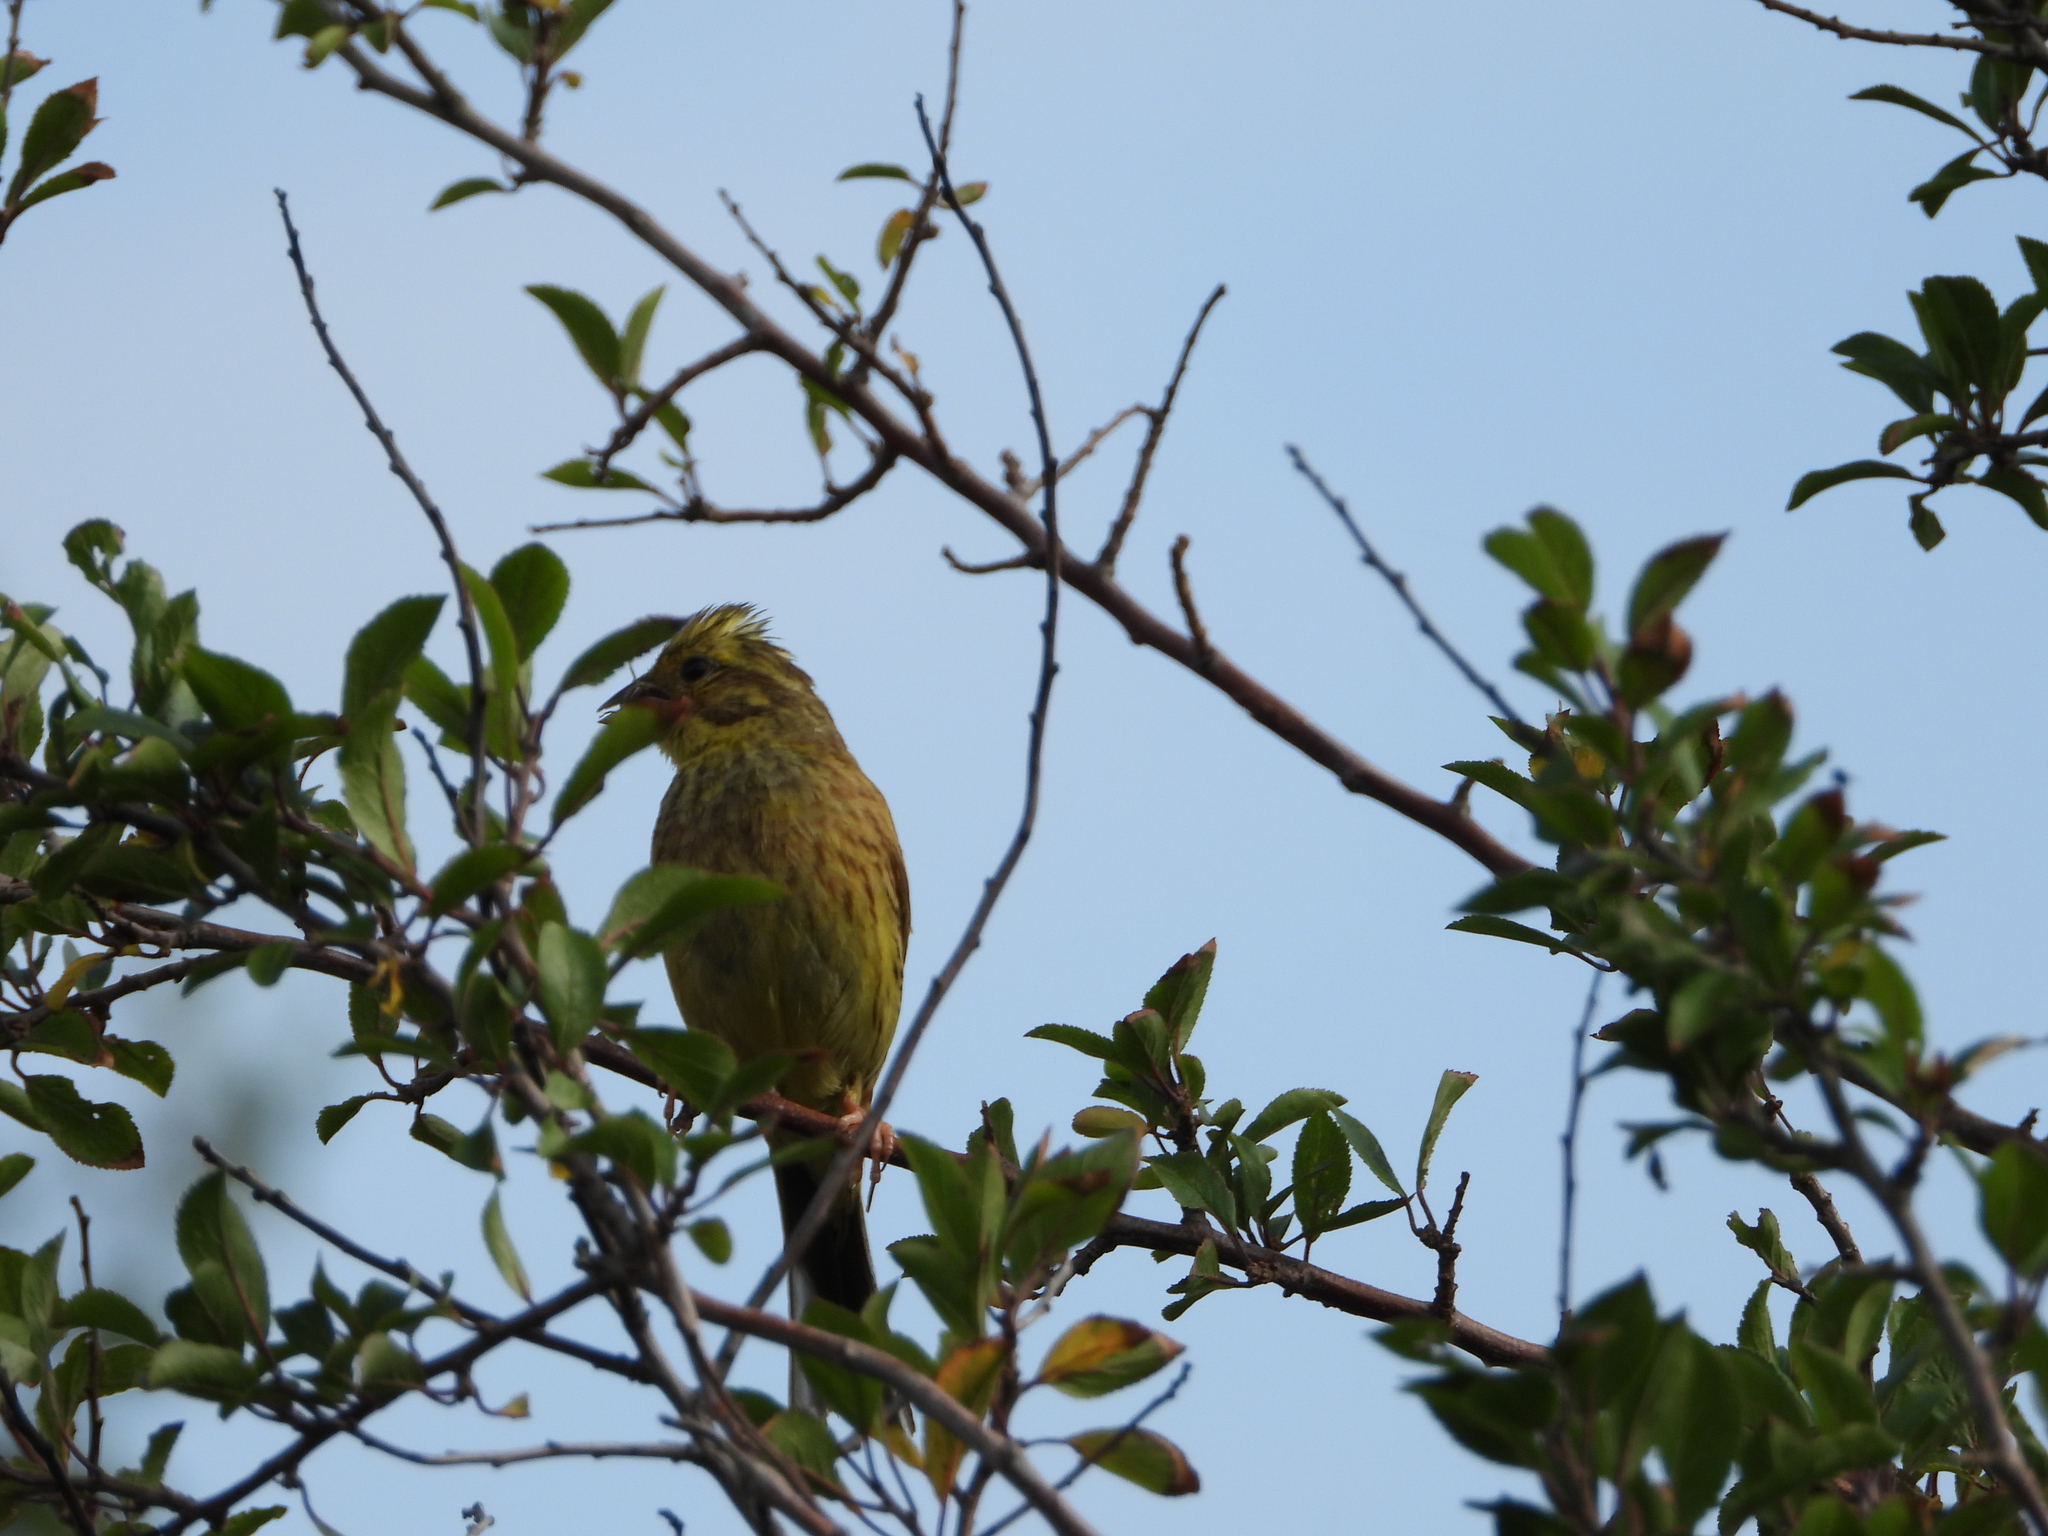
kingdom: Animalia
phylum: Chordata
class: Aves
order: Passeriformes
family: Emberizidae
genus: Emberiza
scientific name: Emberiza citrinella
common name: Yellowhammer
